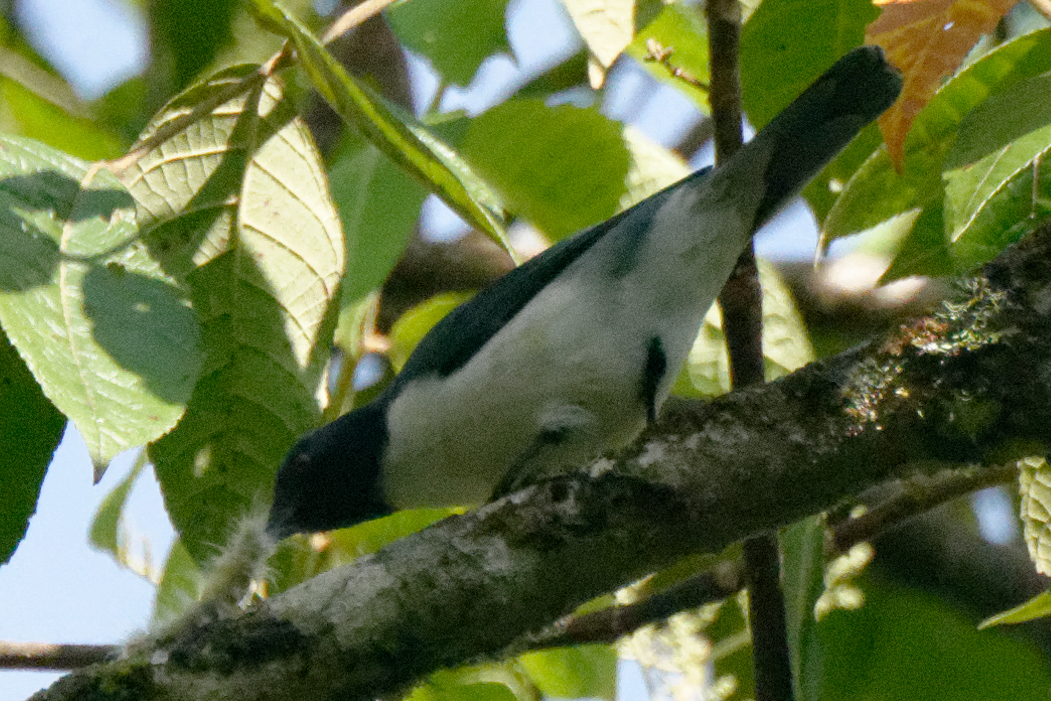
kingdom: Animalia
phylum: Chordata
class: Aves
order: Passeriformes
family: Campephagidae
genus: Celebesia
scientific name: Celebesia abbotti
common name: Pygmy cuckooshrike
